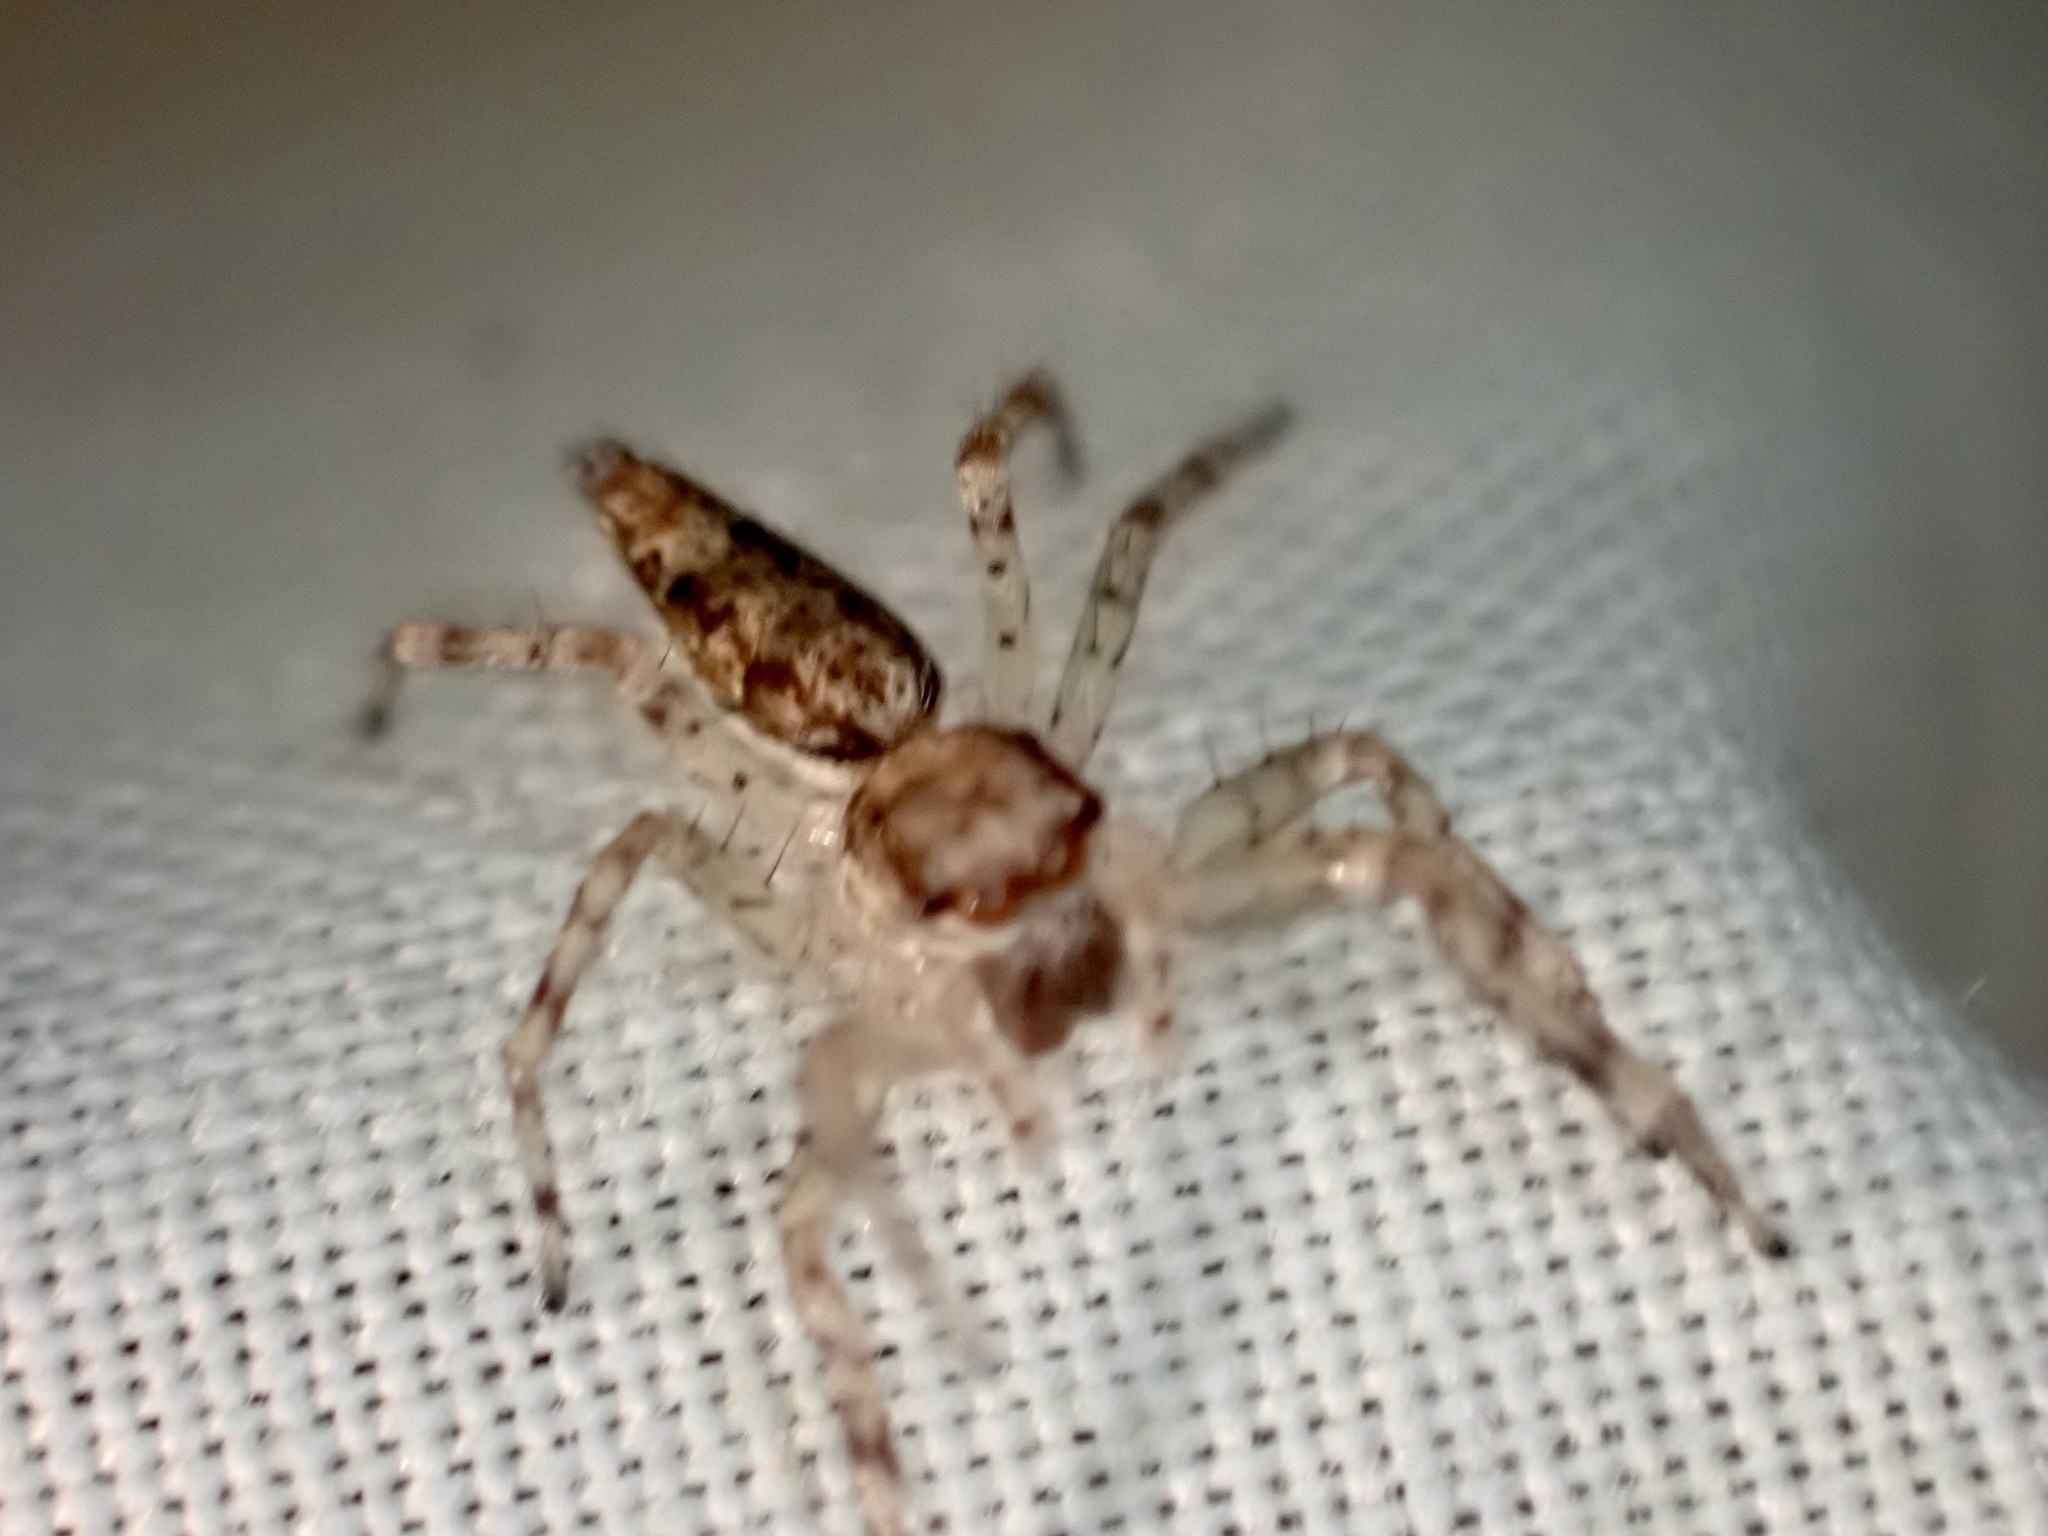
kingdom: Animalia
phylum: Arthropoda
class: Arachnida
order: Araneae
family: Salticidae
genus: Helpis
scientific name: Helpis minitabunda
